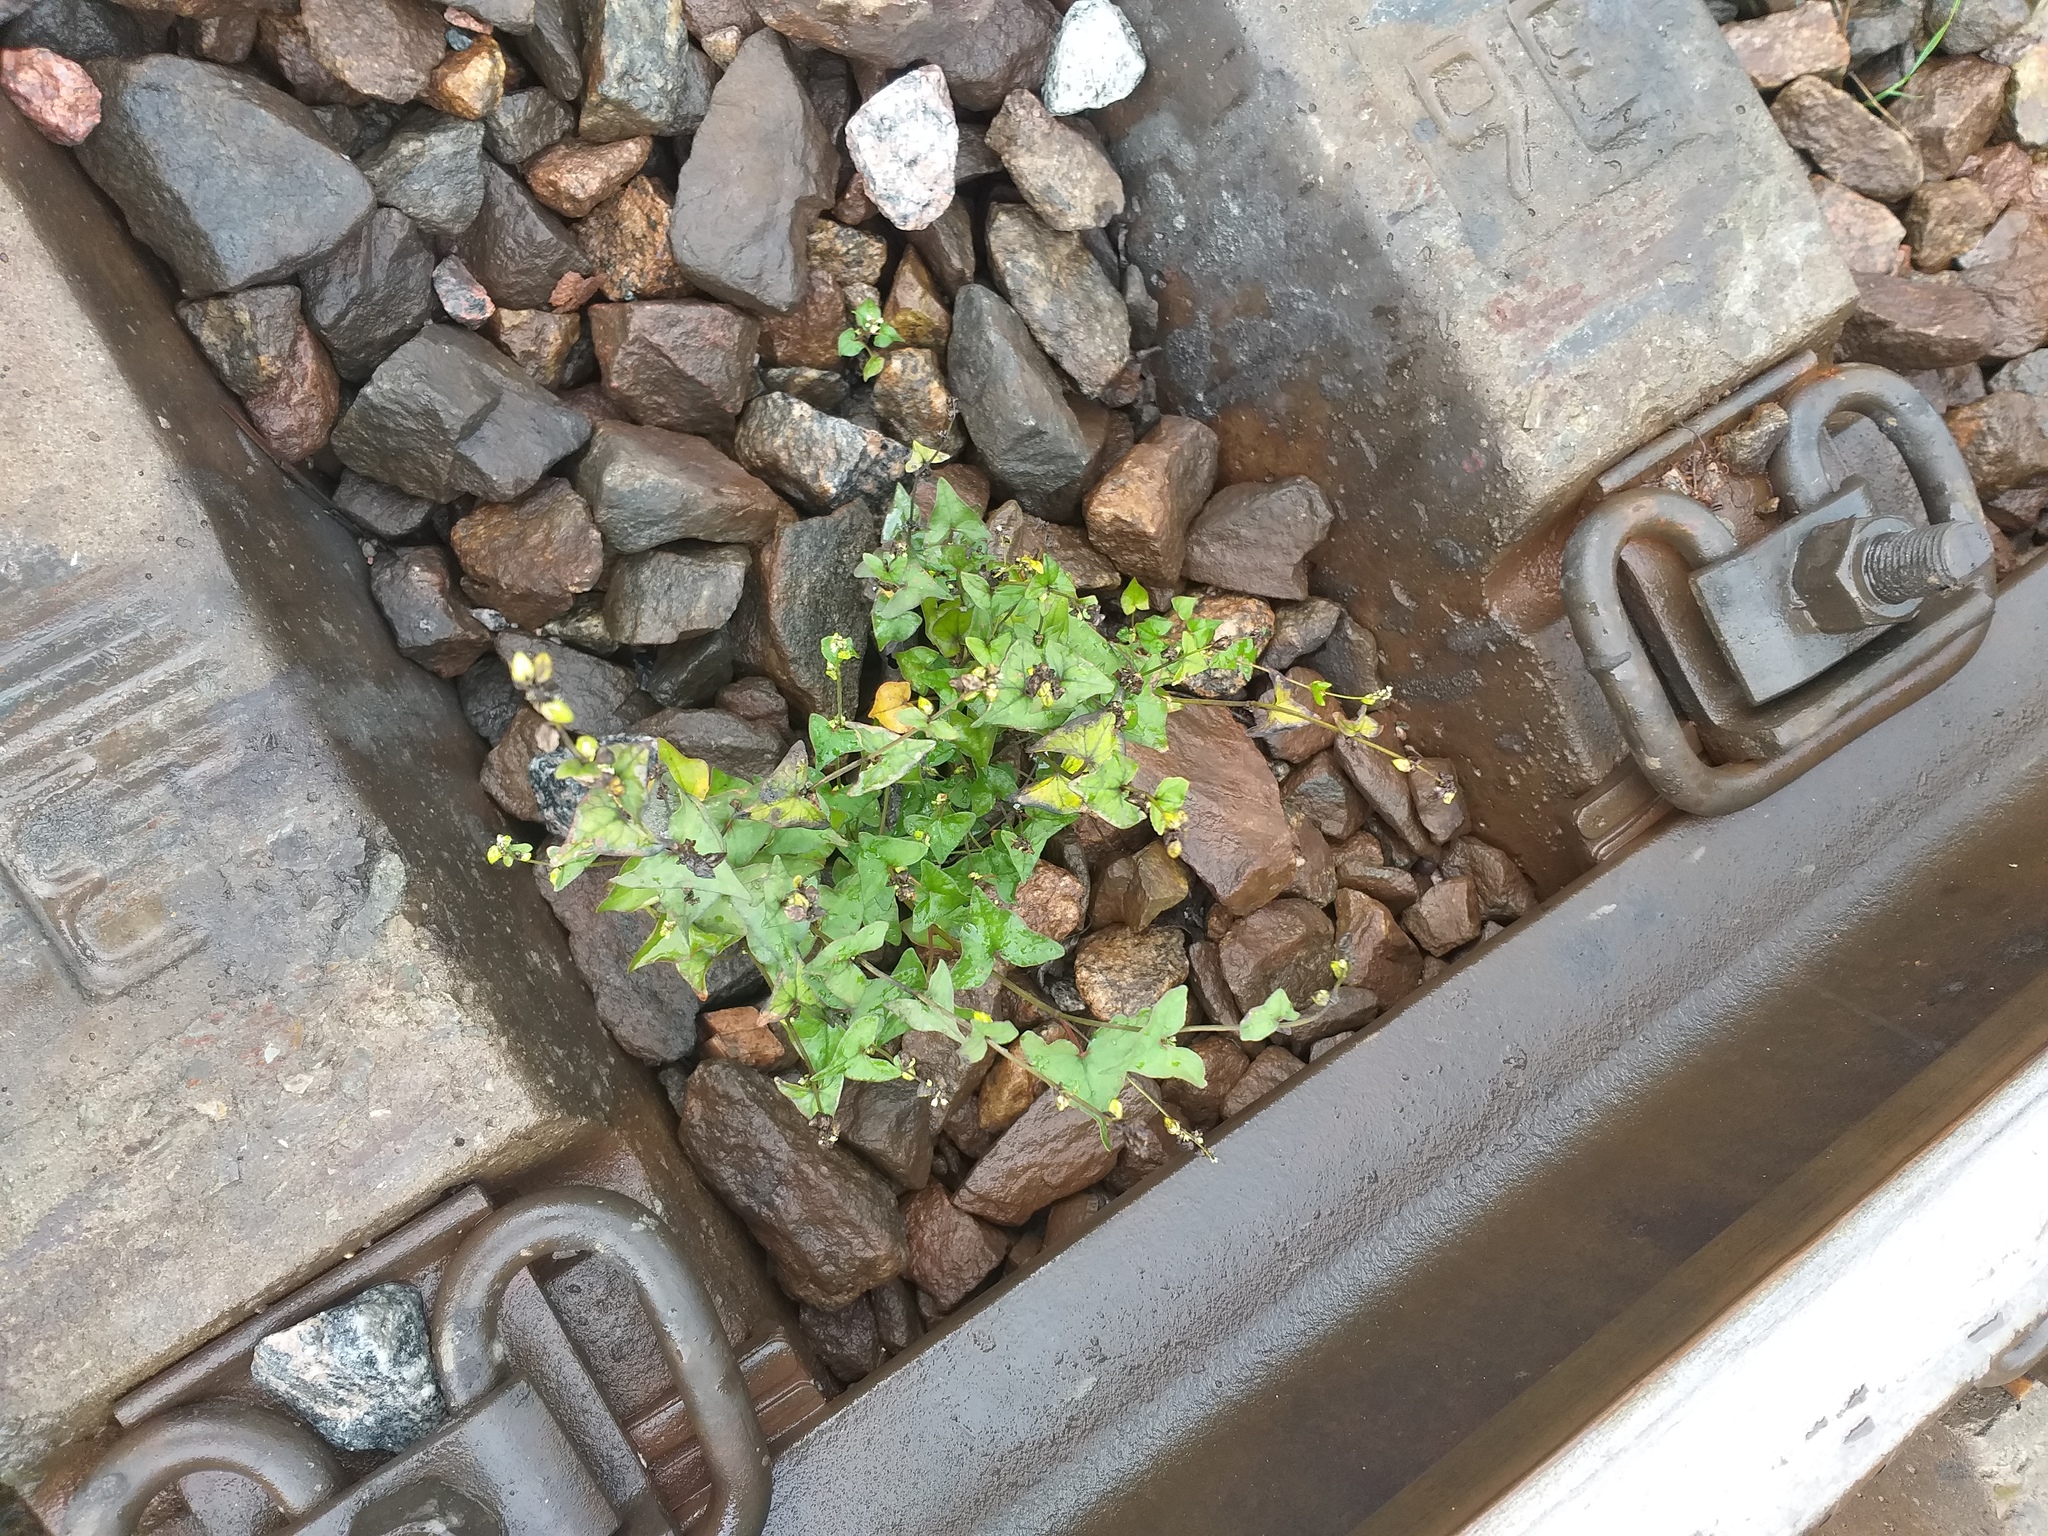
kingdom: Plantae
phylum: Tracheophyta
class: Magnoliopsida
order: Caryophyllales
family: Polygonaceae
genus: Fagopyrum
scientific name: Fagopyrum tataricum
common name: Green buckwheat
